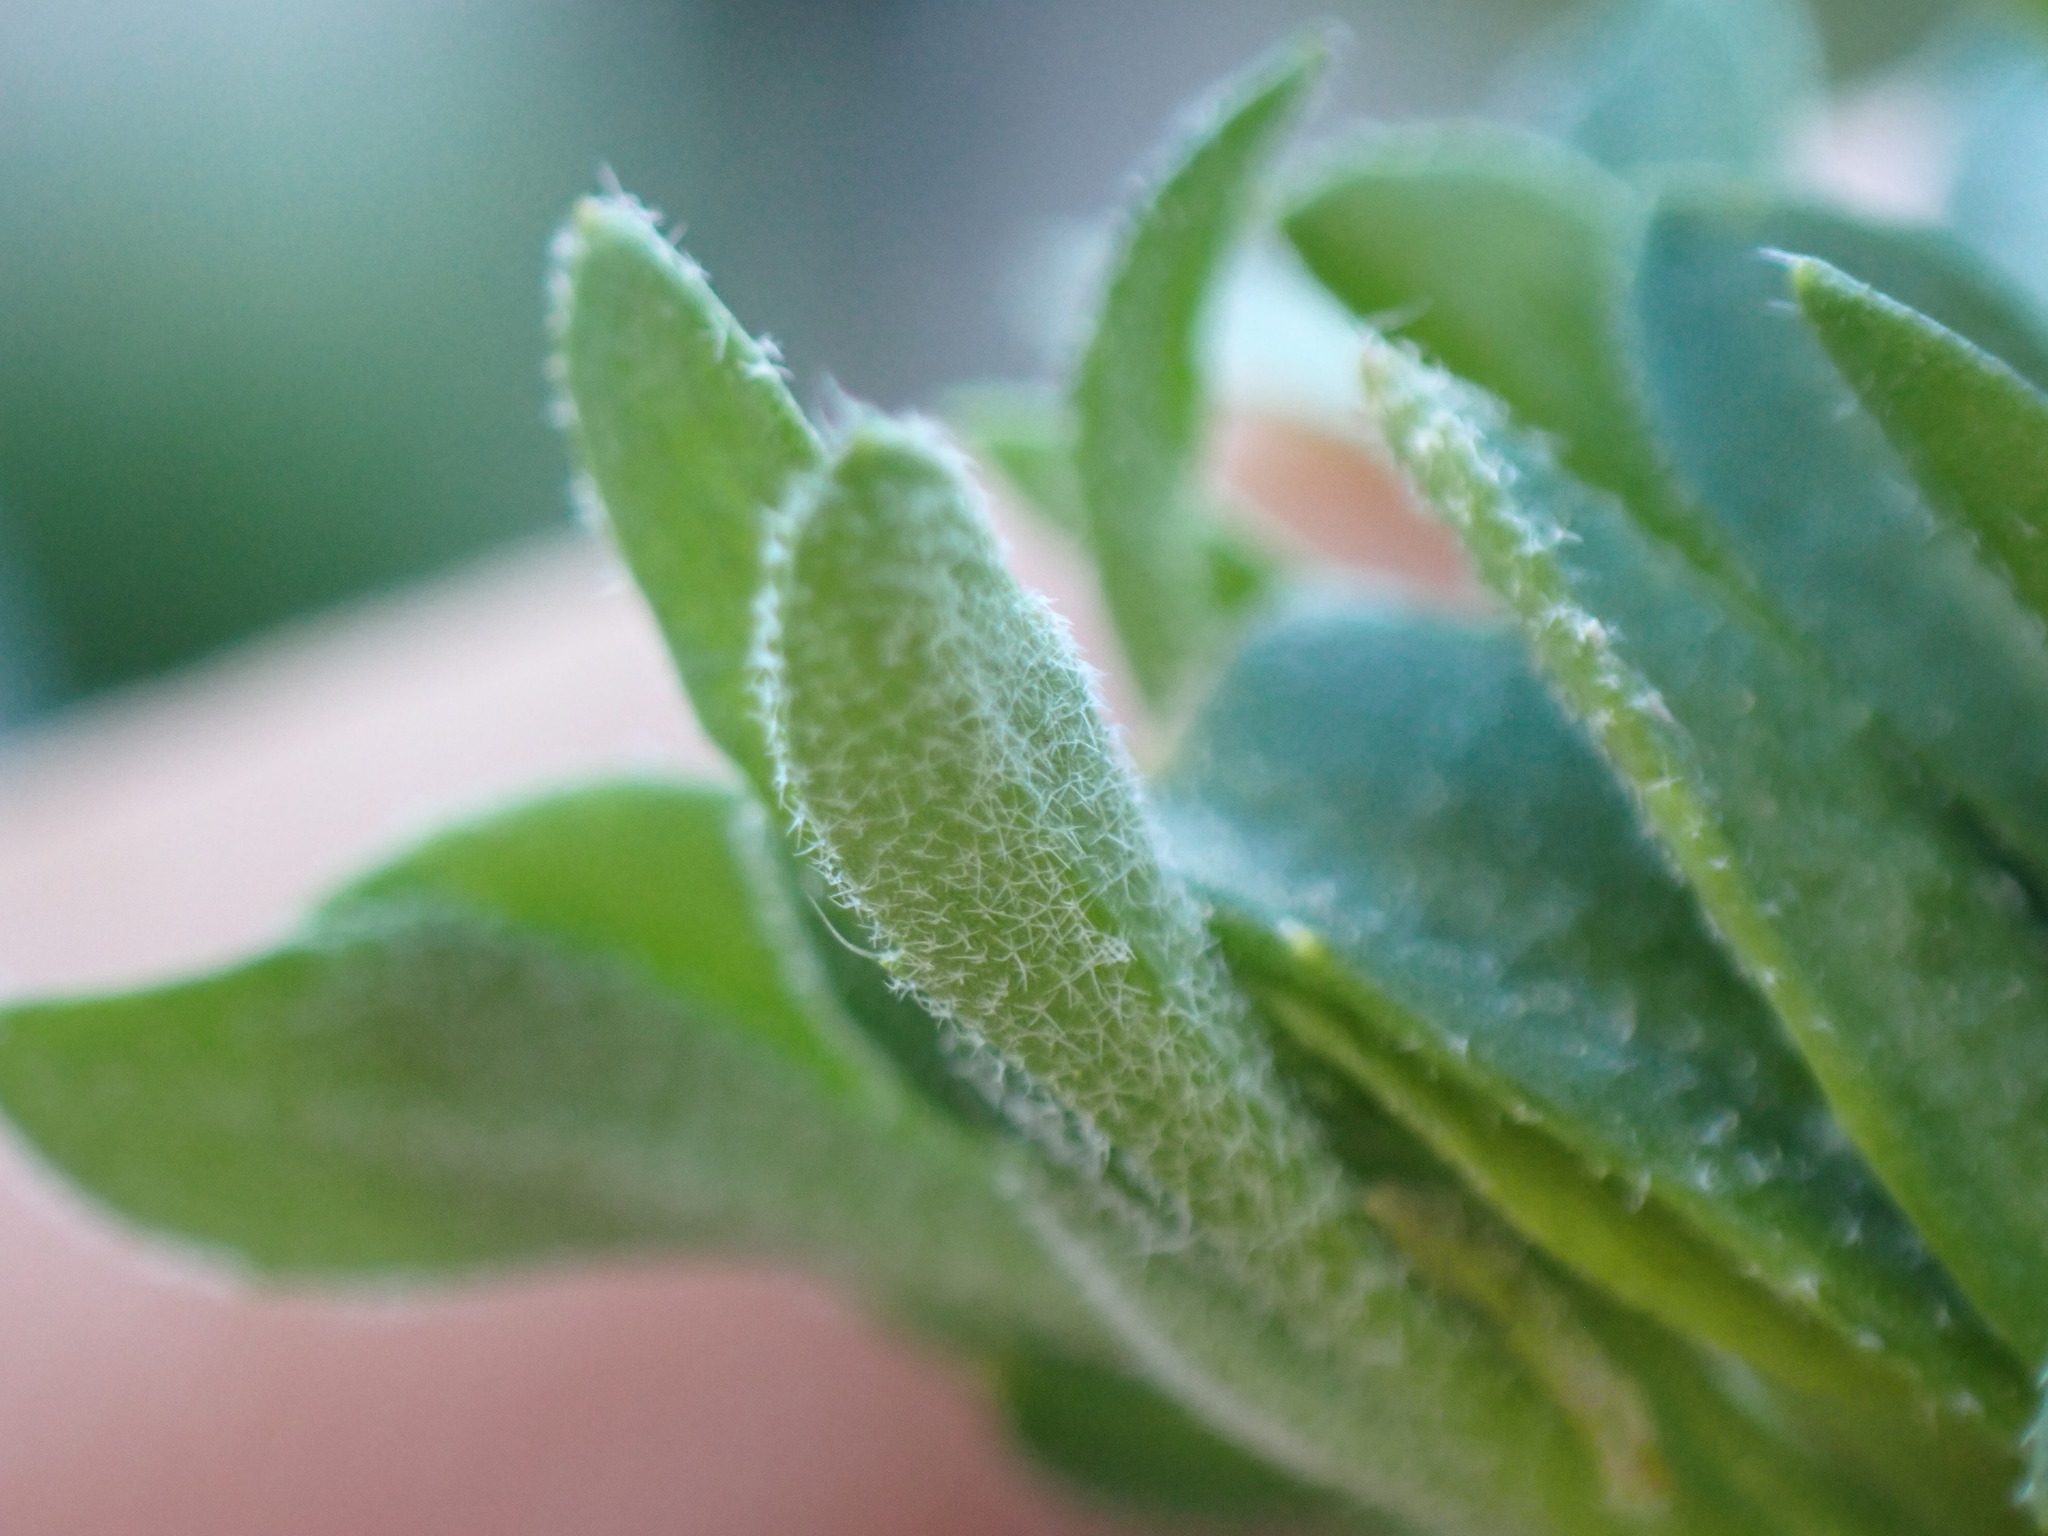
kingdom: Plantae
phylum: Tracheophyta
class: Magnoliopsida
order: Brassicales
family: Brassicaceae
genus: Draba
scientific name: Draba praealta
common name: Tall draba
